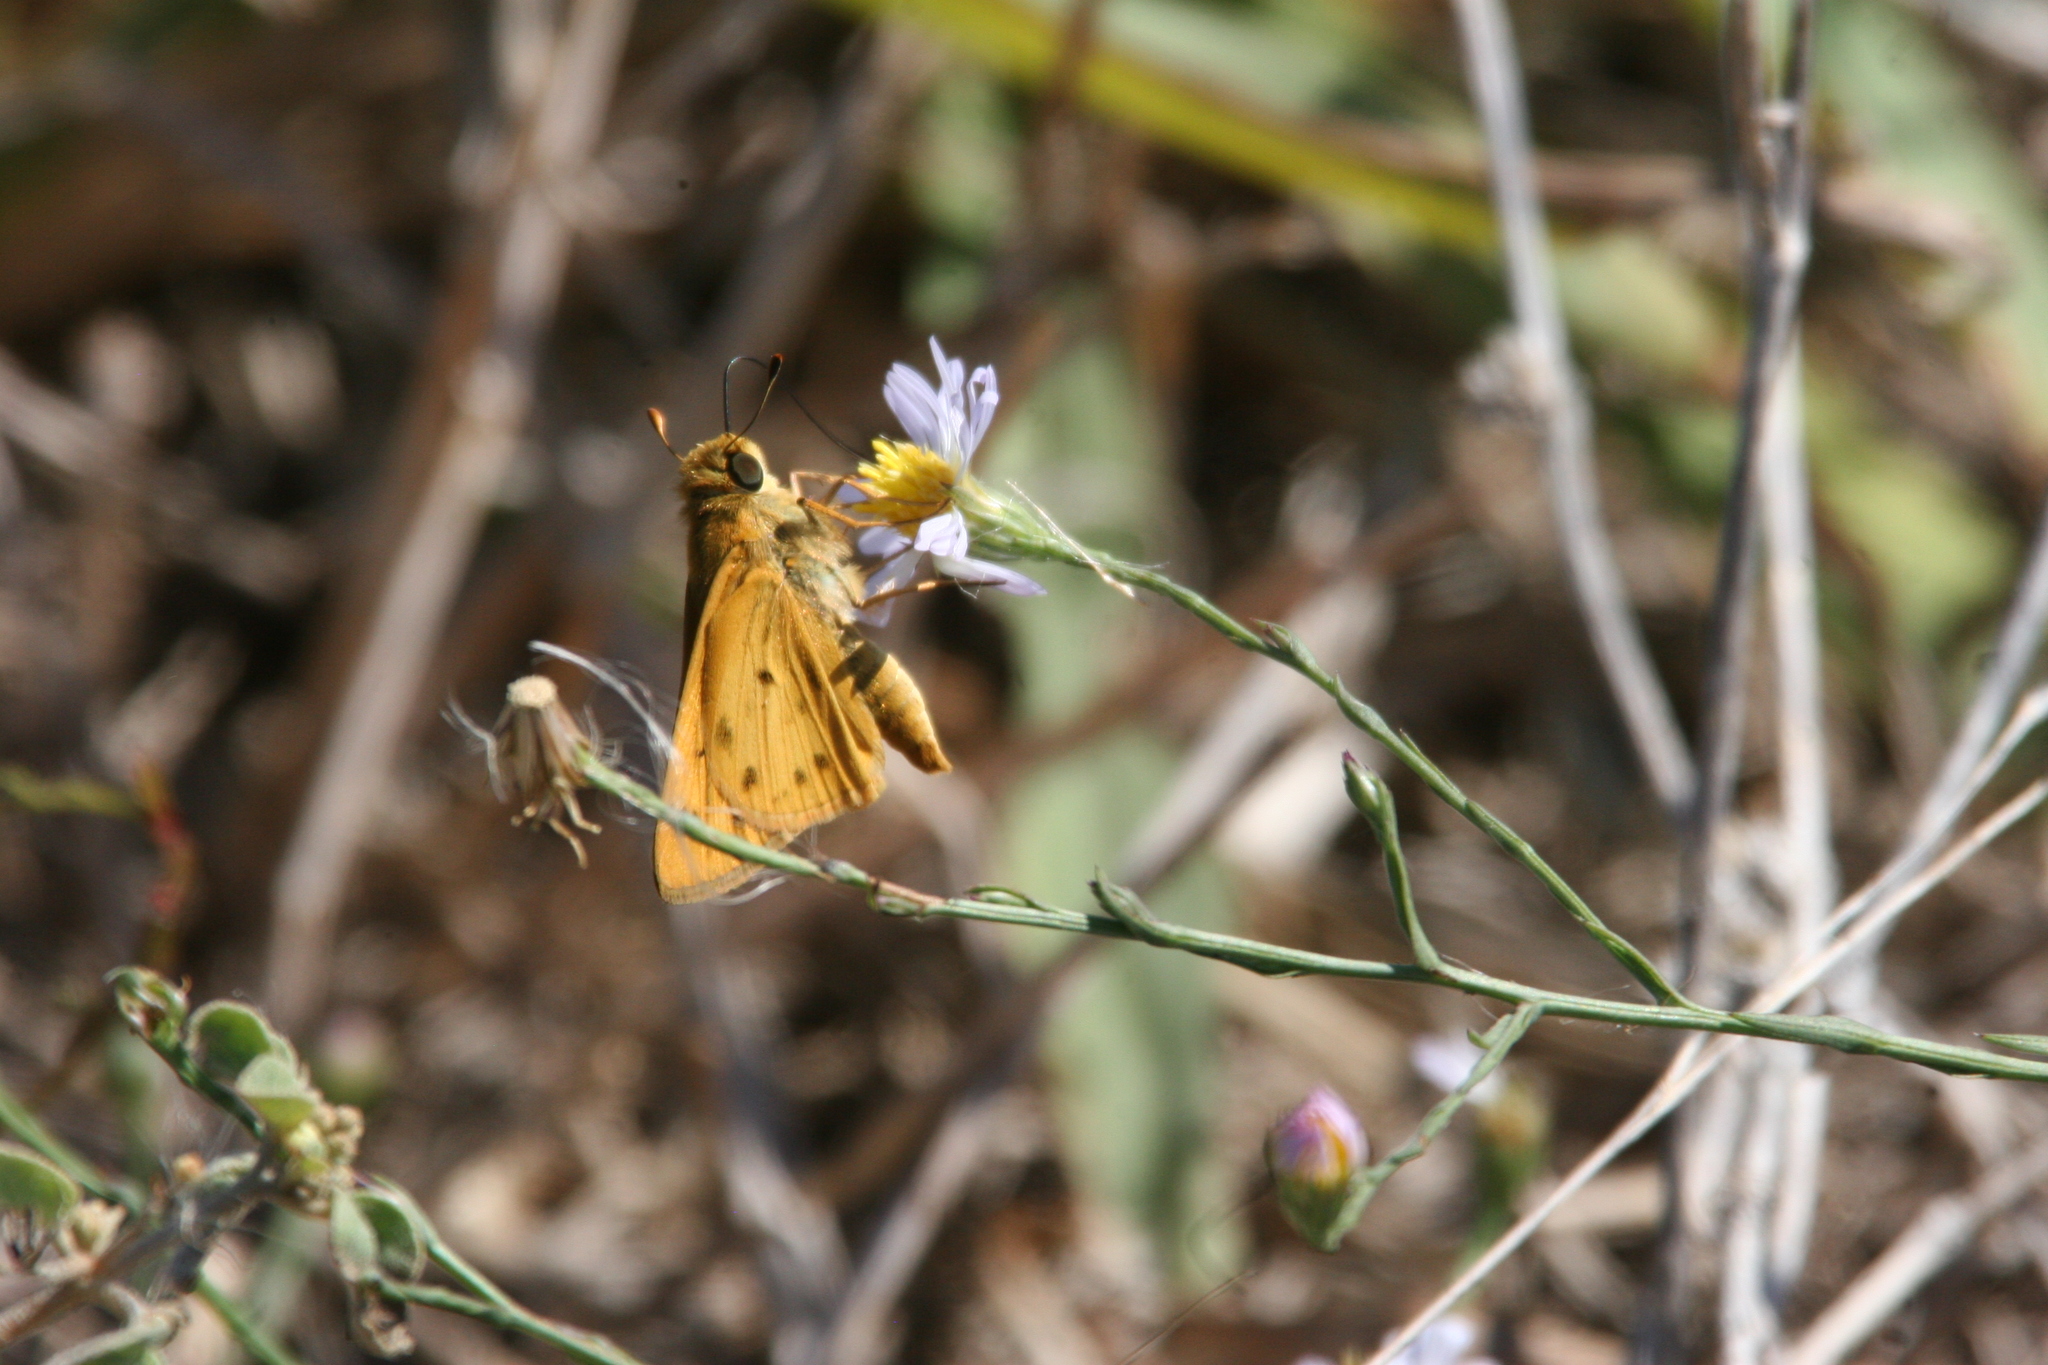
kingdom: Animalia
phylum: Arthropoda
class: Insecta
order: Lepidoptera
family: Hesperiidae
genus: Hylephila
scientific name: Hylephila phyleus
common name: Fiery skipper
